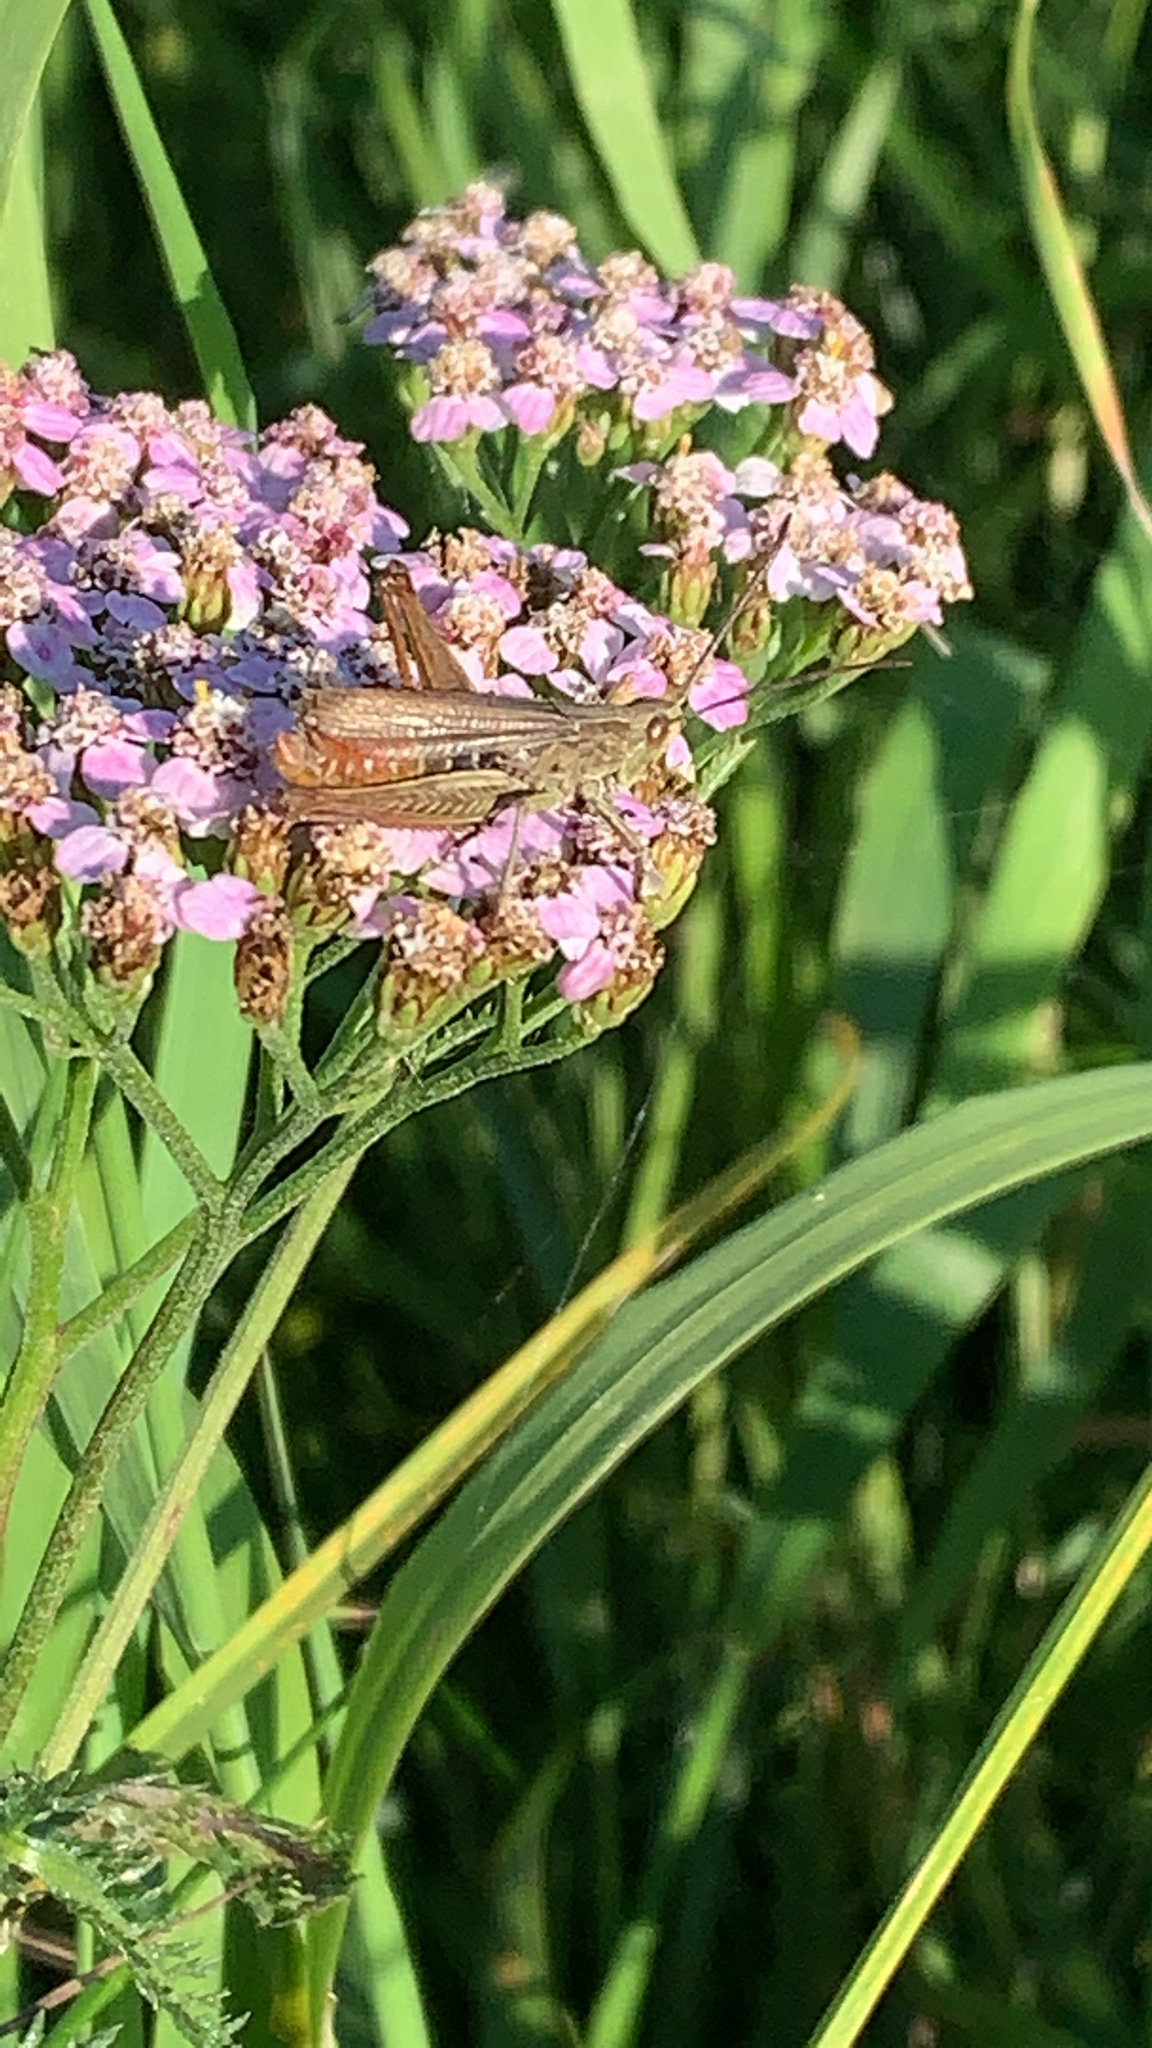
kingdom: Animalia
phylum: Arthropoda
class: Insecta
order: Orthoptera
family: Acrididae
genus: Chorthippus
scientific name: Chorthippus dorsatus
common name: Steppe grasshopper
